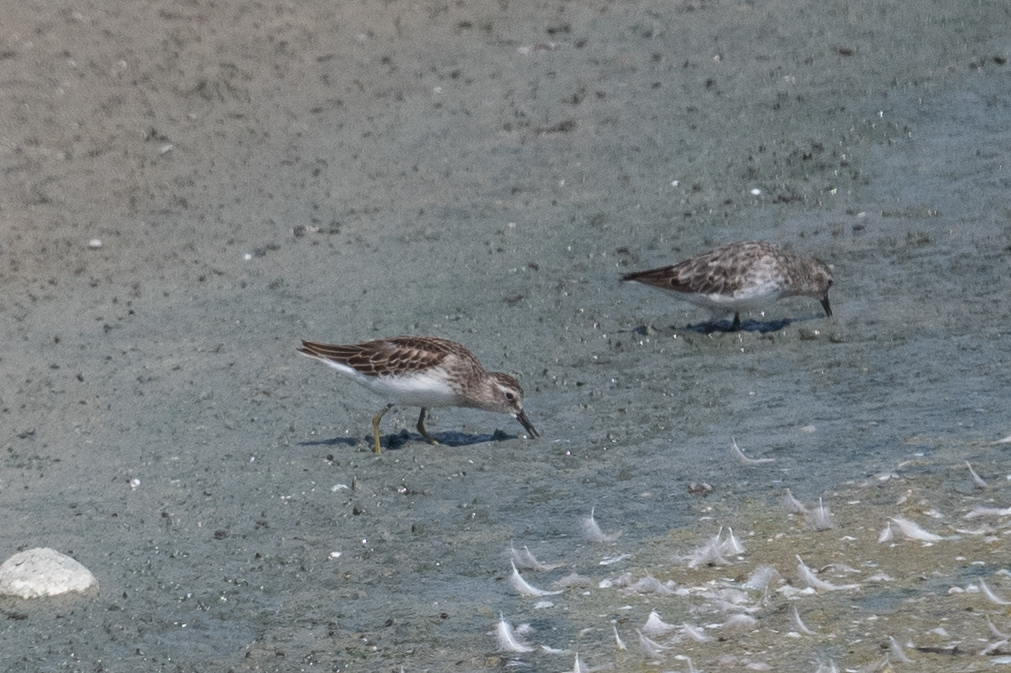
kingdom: Animalia
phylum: Chordata
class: Aves
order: Charadriiformes
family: Scolopacidae
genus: Calidris
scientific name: Calidris minutilla
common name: Least sandpiper
